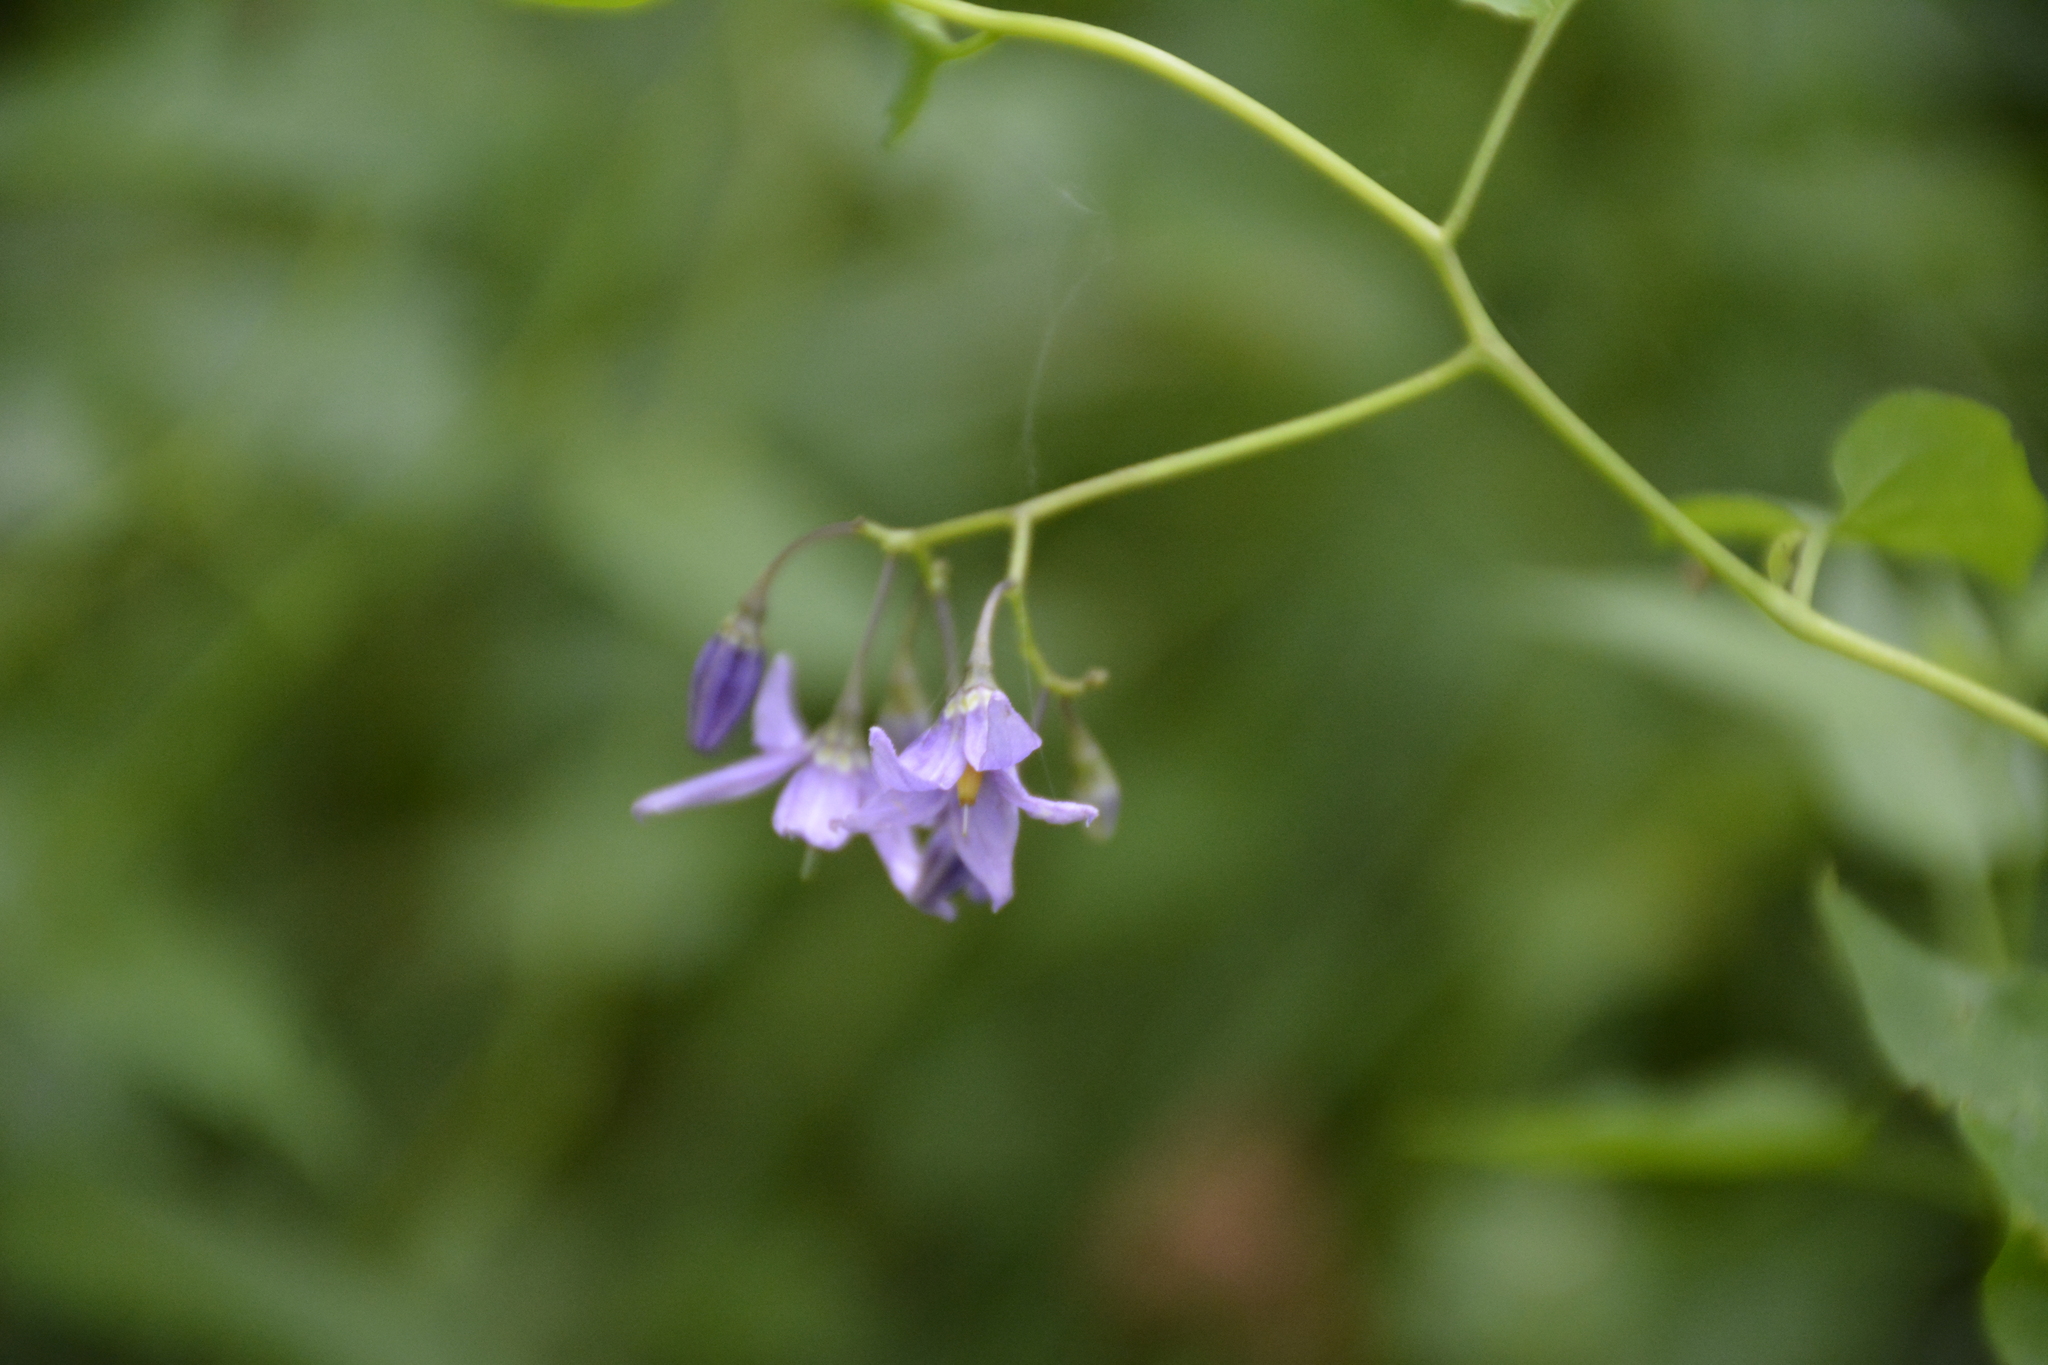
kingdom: Plantae
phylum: Tracheophyta
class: Magnoliopsida
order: Solanales
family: Solanaceae
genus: Solanum
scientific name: Solanum dulcamara
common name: Climbing nightshade
